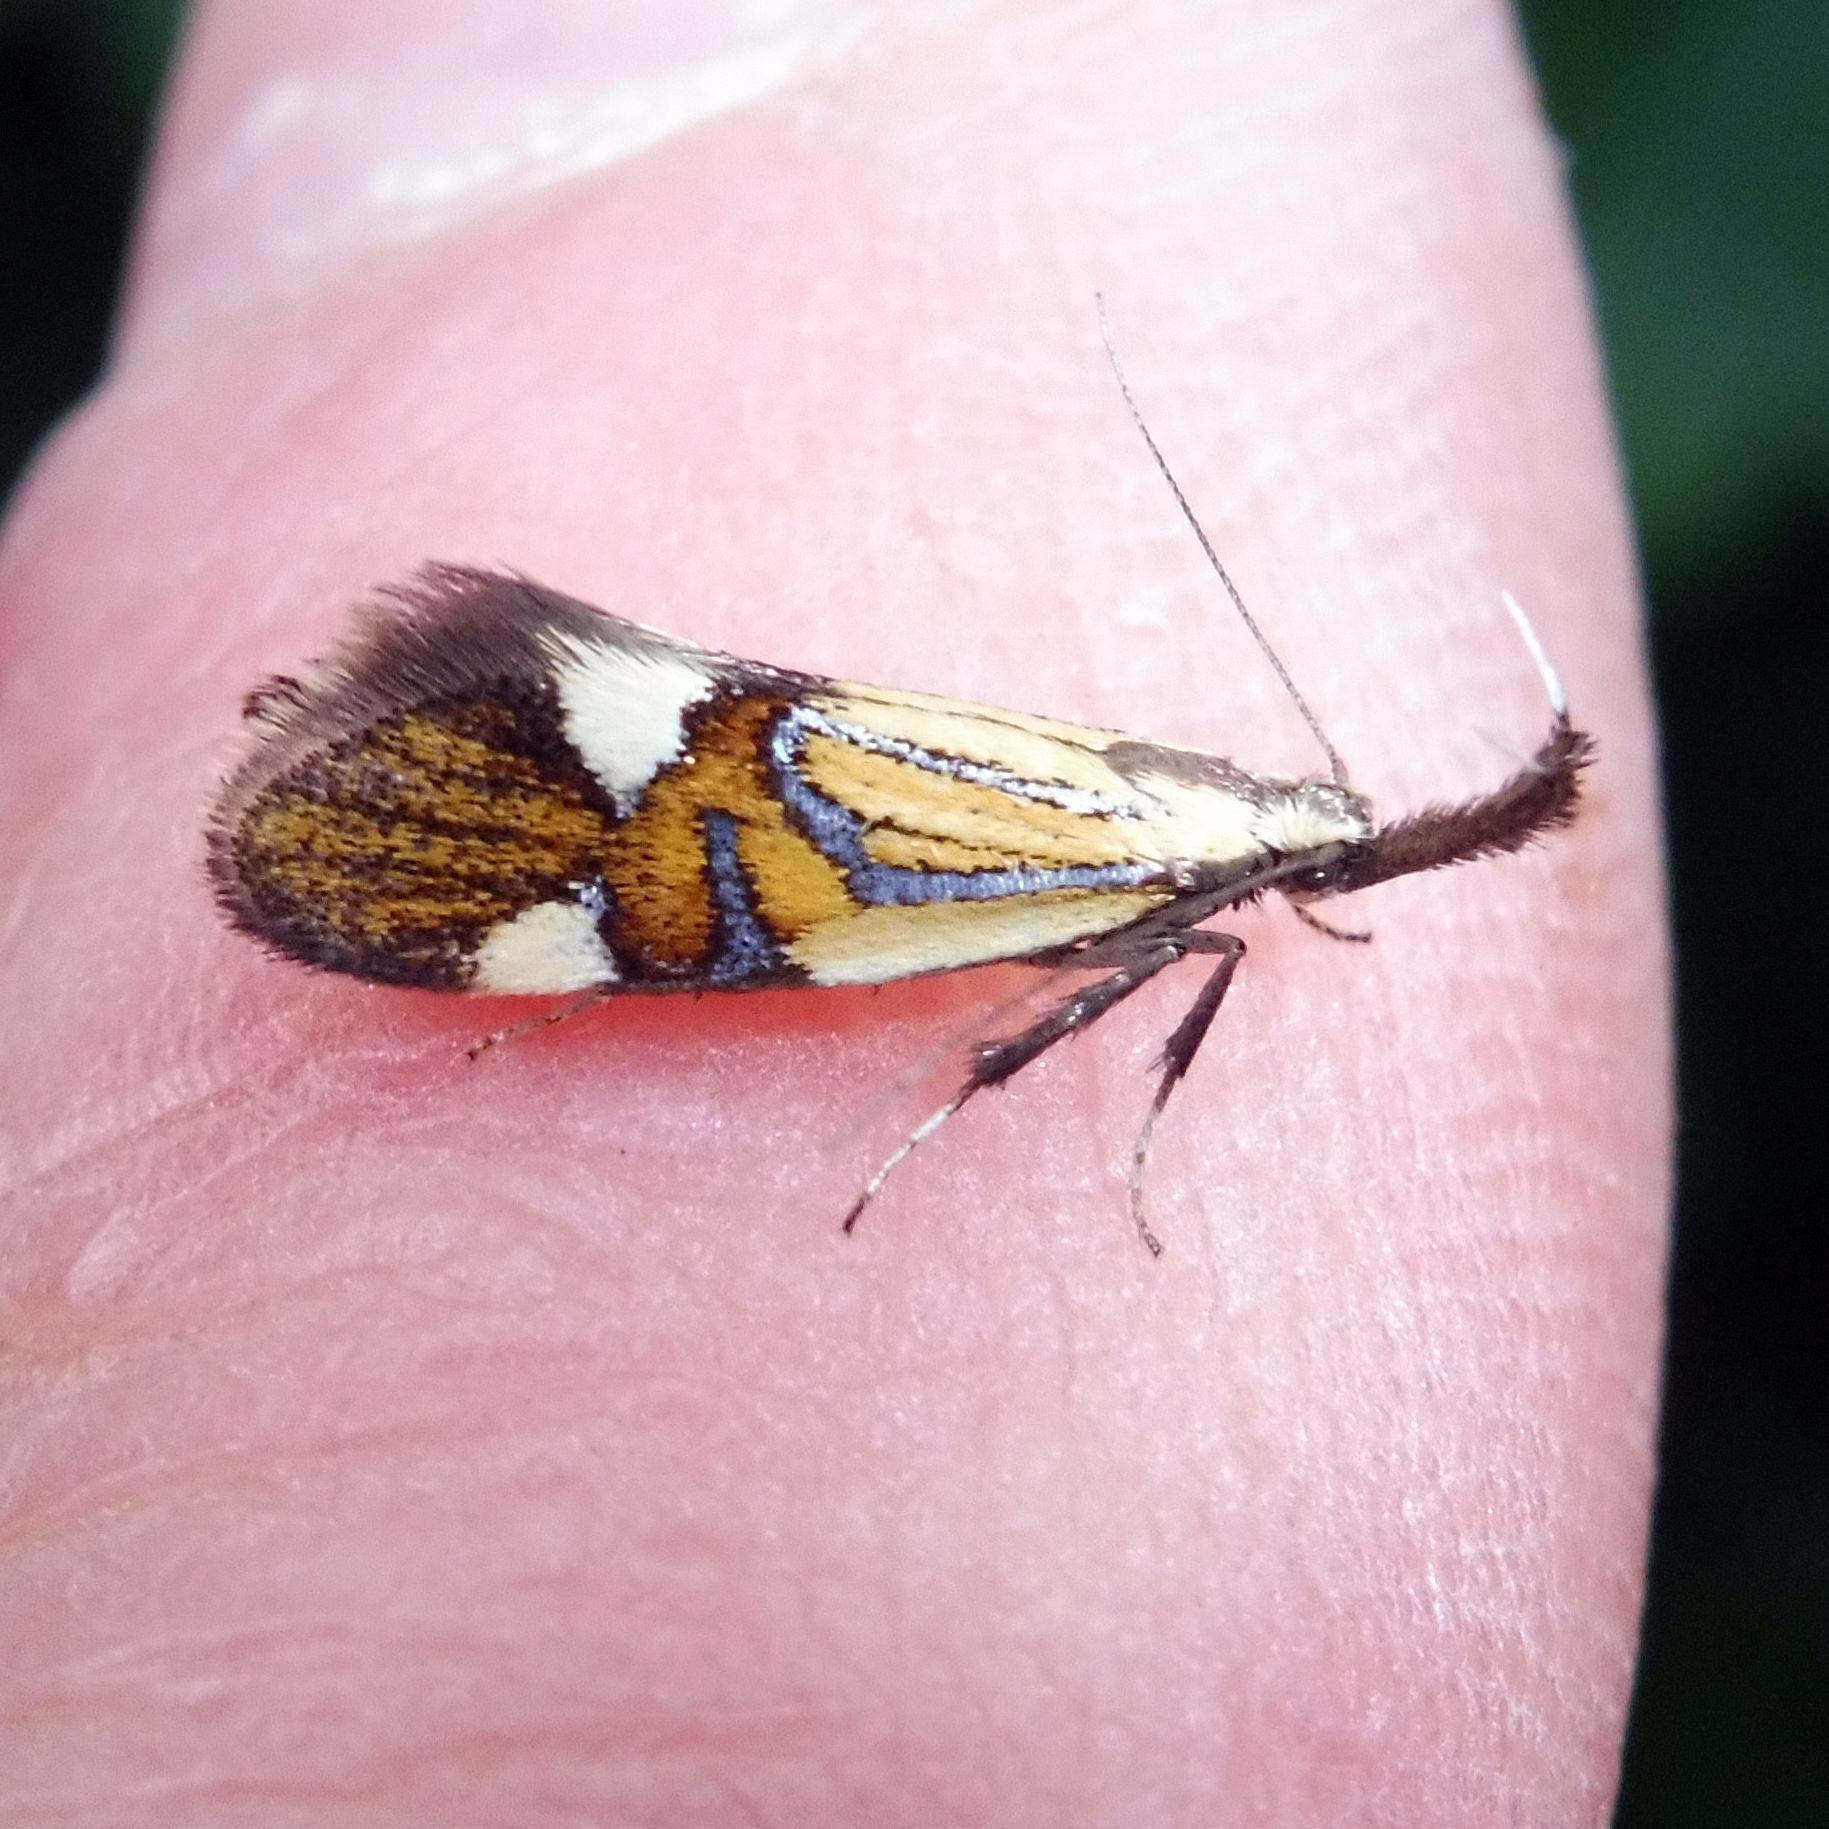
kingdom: Animalia
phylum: Arthropoda
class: Insecta
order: Lepidoptera
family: Oecophoridae
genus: Oecophora
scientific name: Oecophora Alabonia geoffrella
